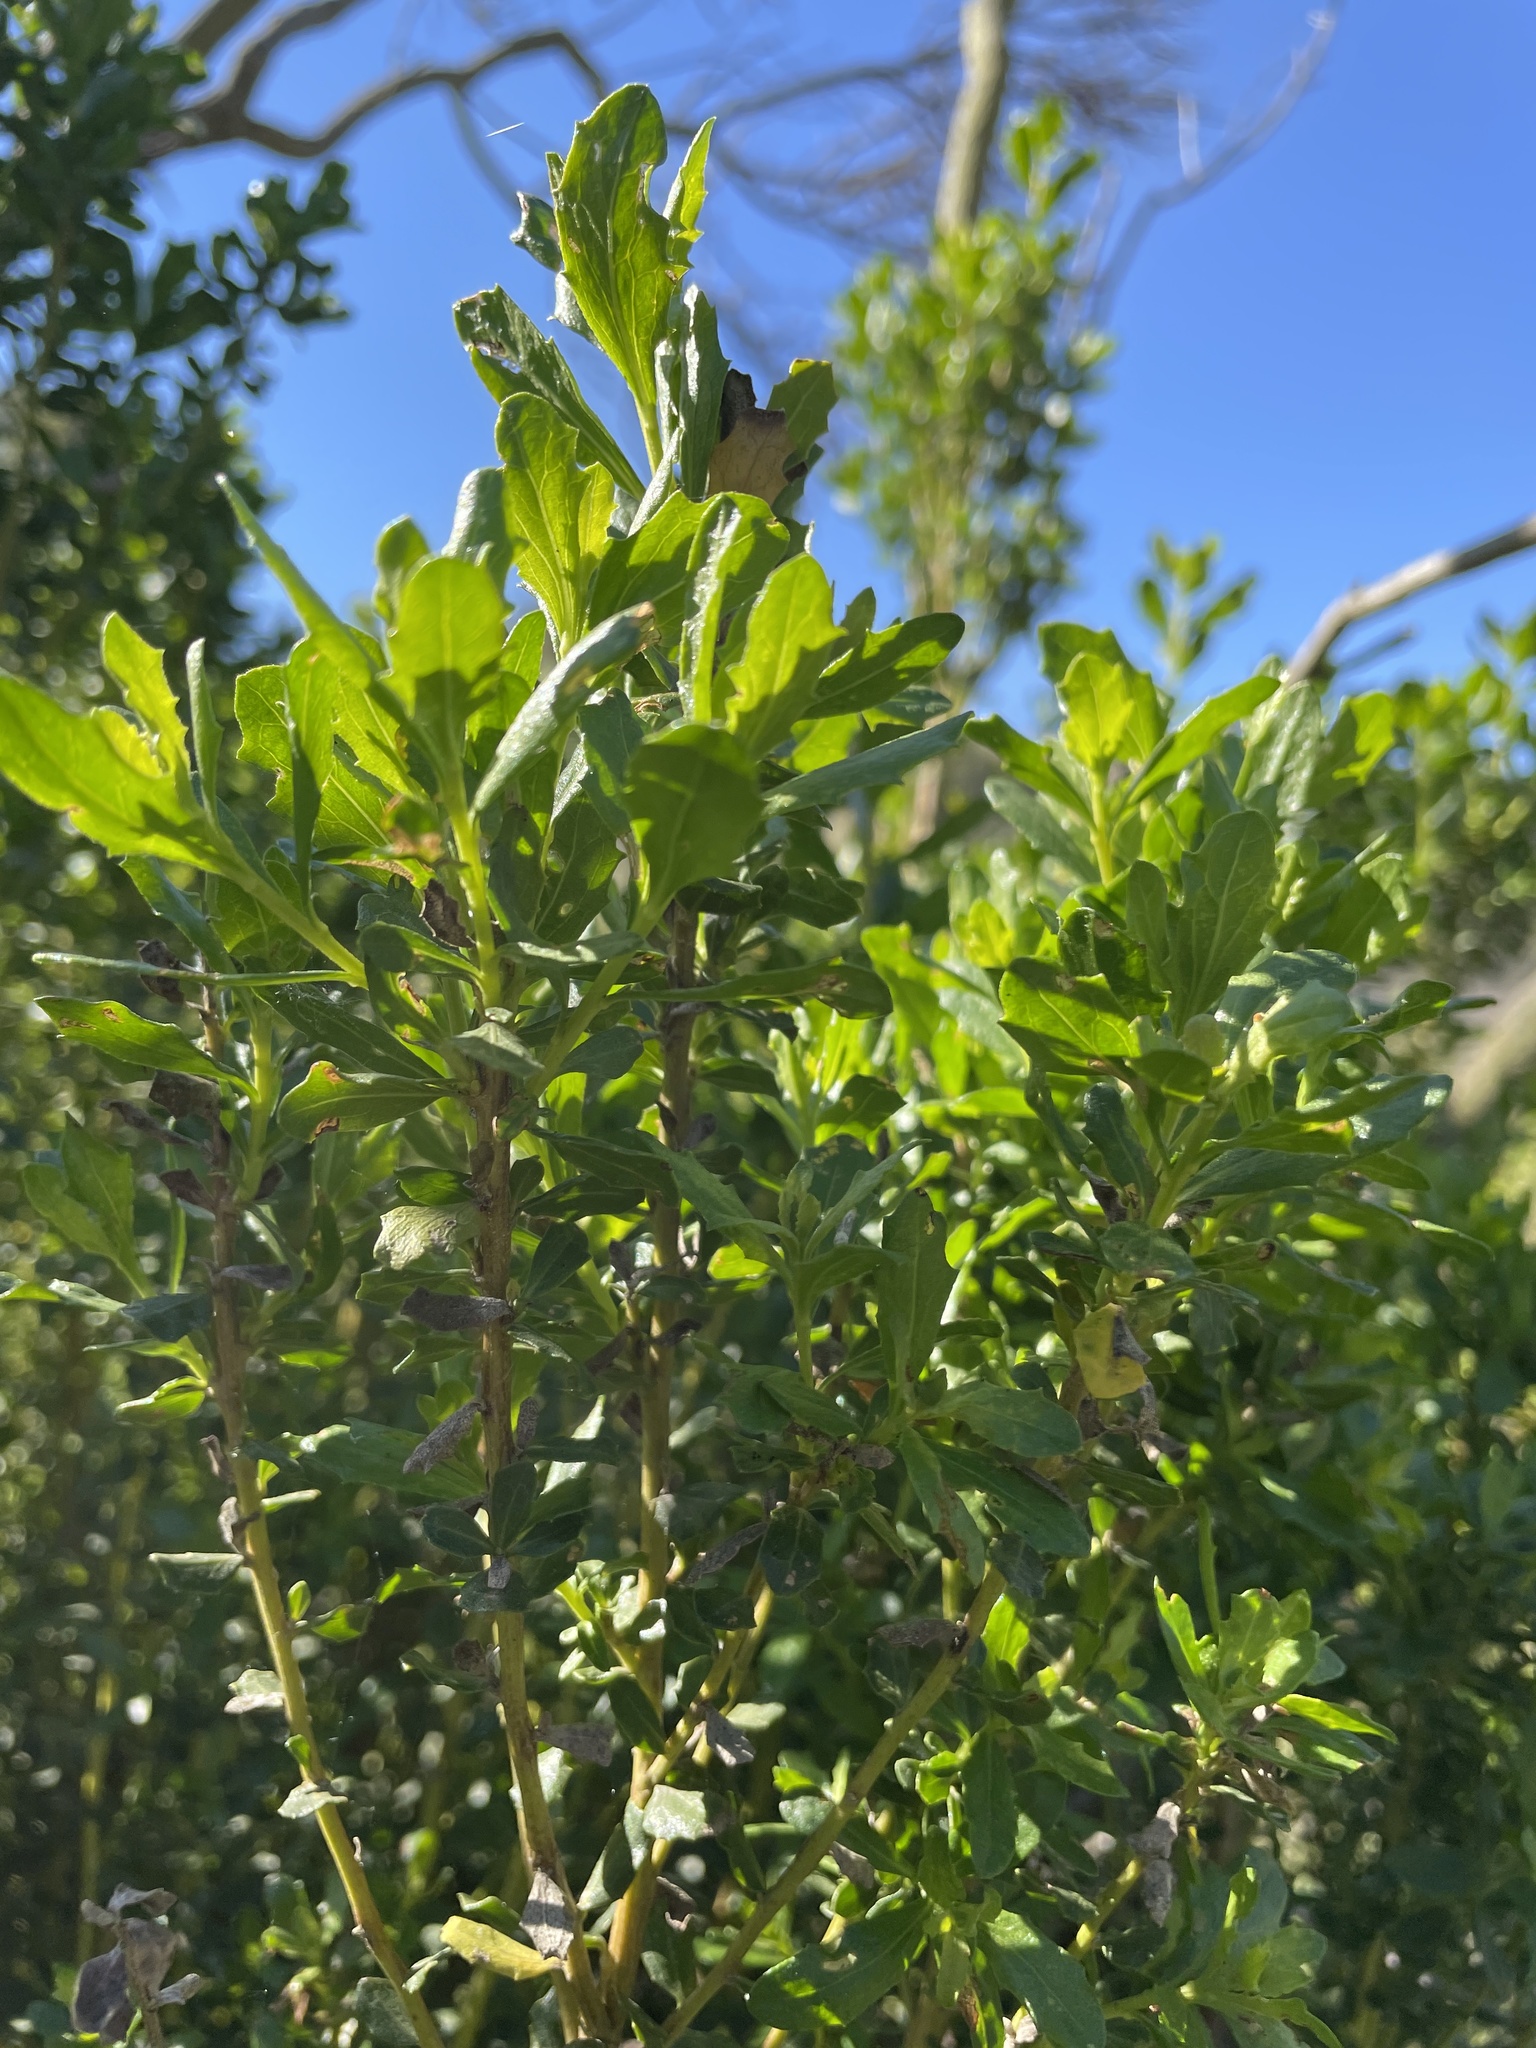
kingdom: Plantae
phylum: Tracheophyta
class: Magnoliopsida
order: Asterales
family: Asteraceae
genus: Baccharis
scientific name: Baccharis pilularis
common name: Coyotebrush
